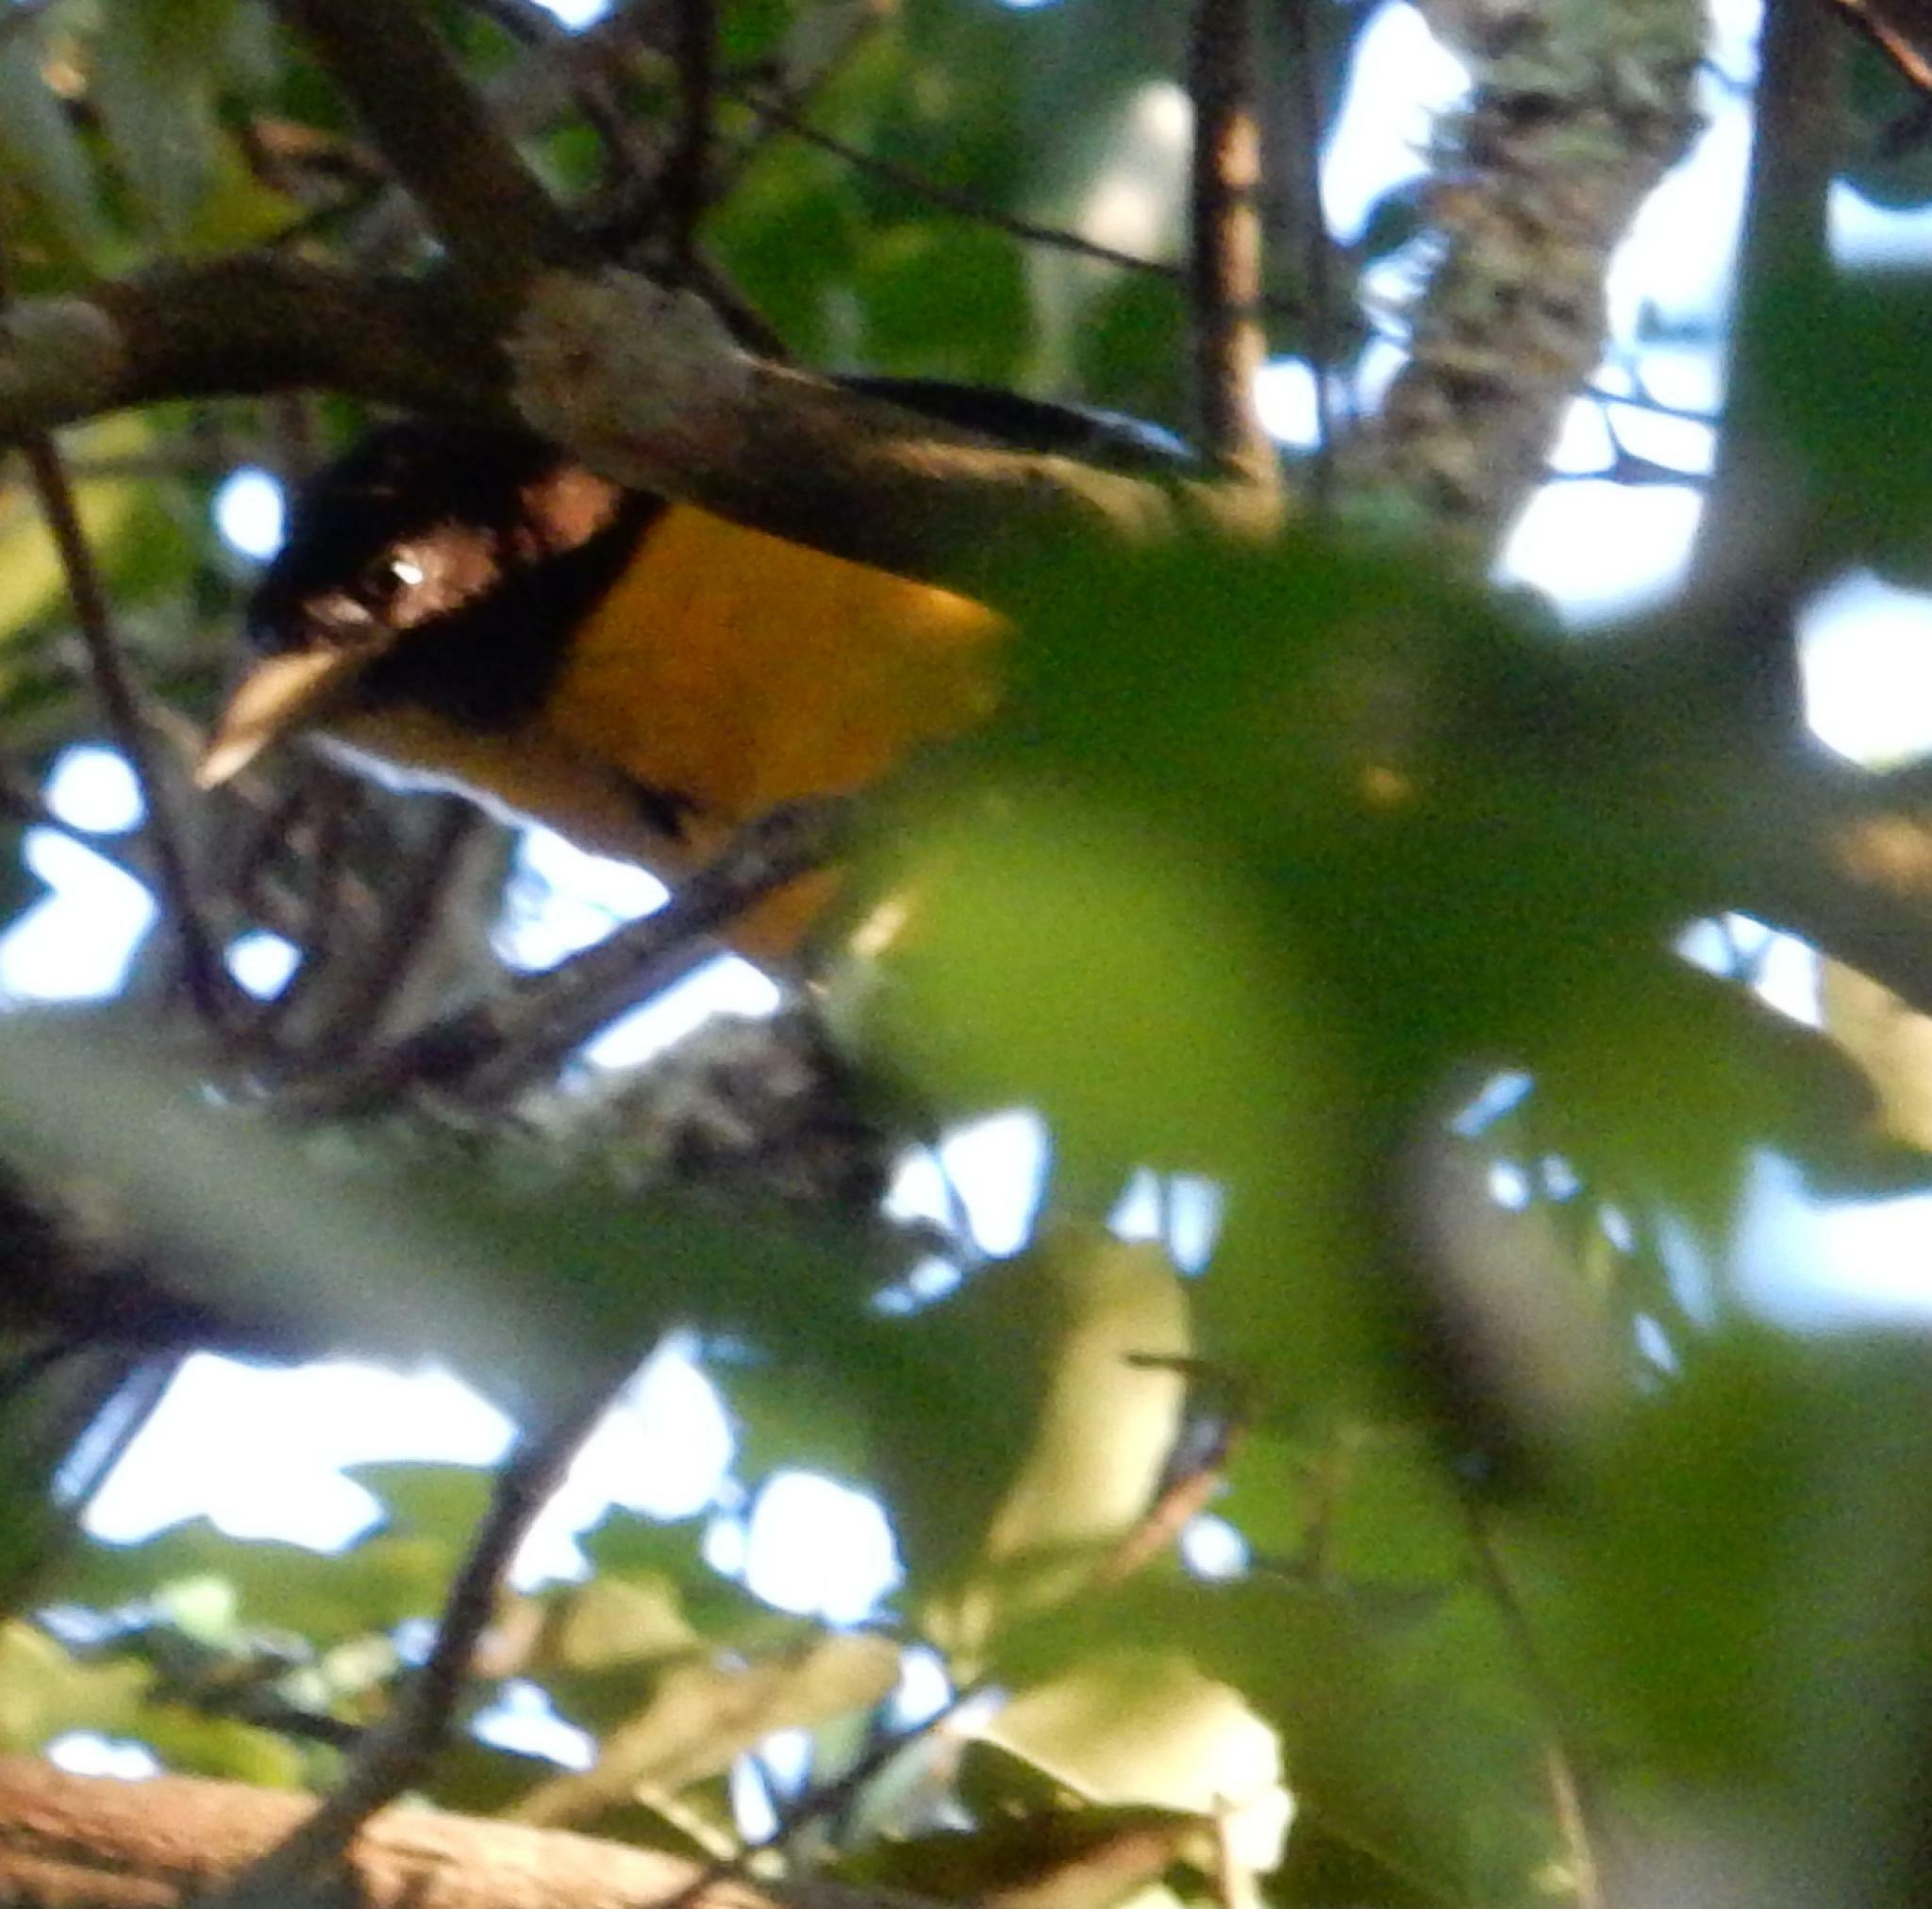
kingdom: Animalia
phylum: Chordata
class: Aves
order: Passeriformes
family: Ploceidae
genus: Ploceus
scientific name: Ploceus bicolor
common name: Dark-backed weaver
